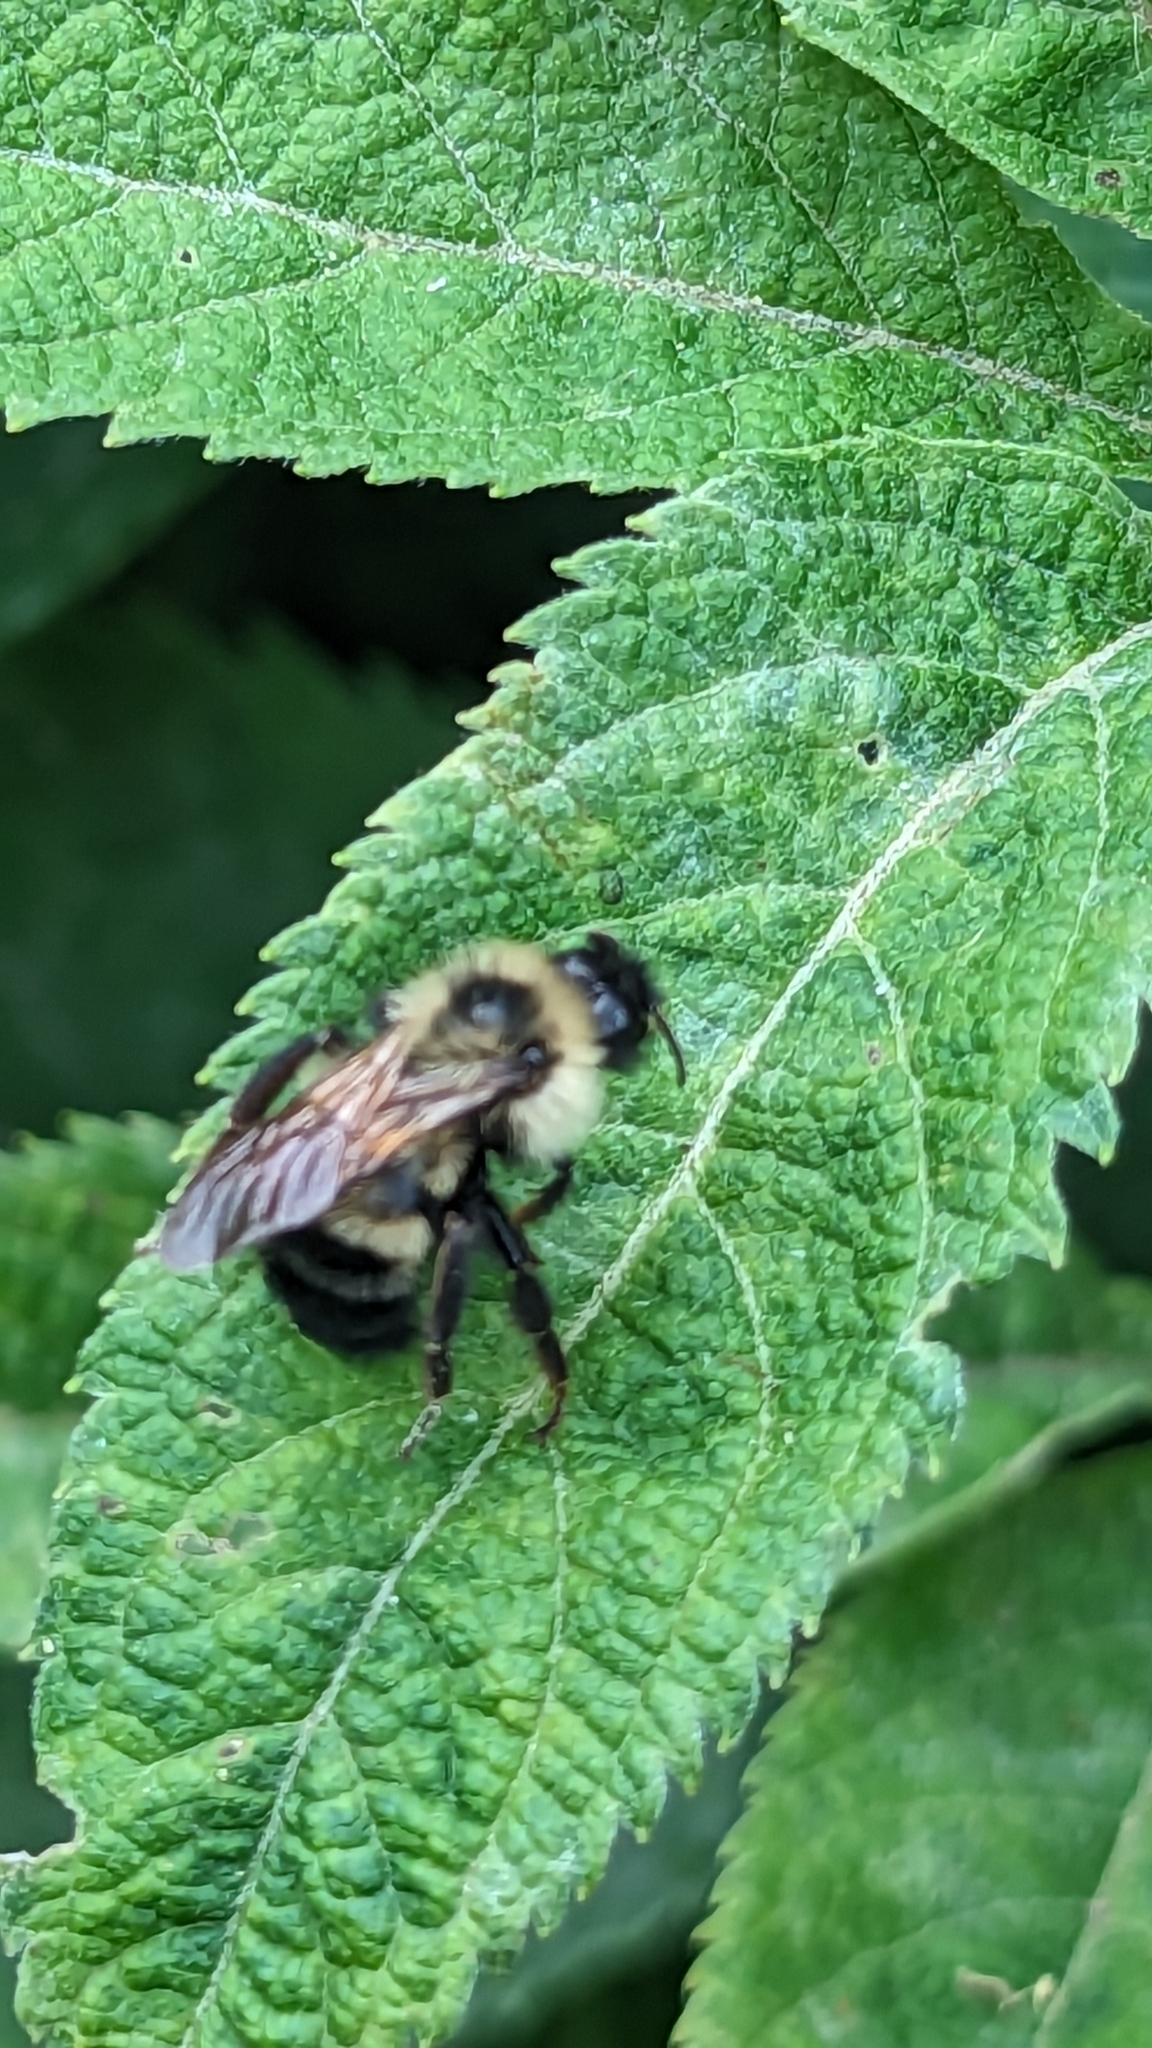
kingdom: Animalia
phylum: Arthropoda
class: Insecta
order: Hymenoptera
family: Apidae
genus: Bombus
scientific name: Bombus citrinus
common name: Lemon cuckoo bumble bee
